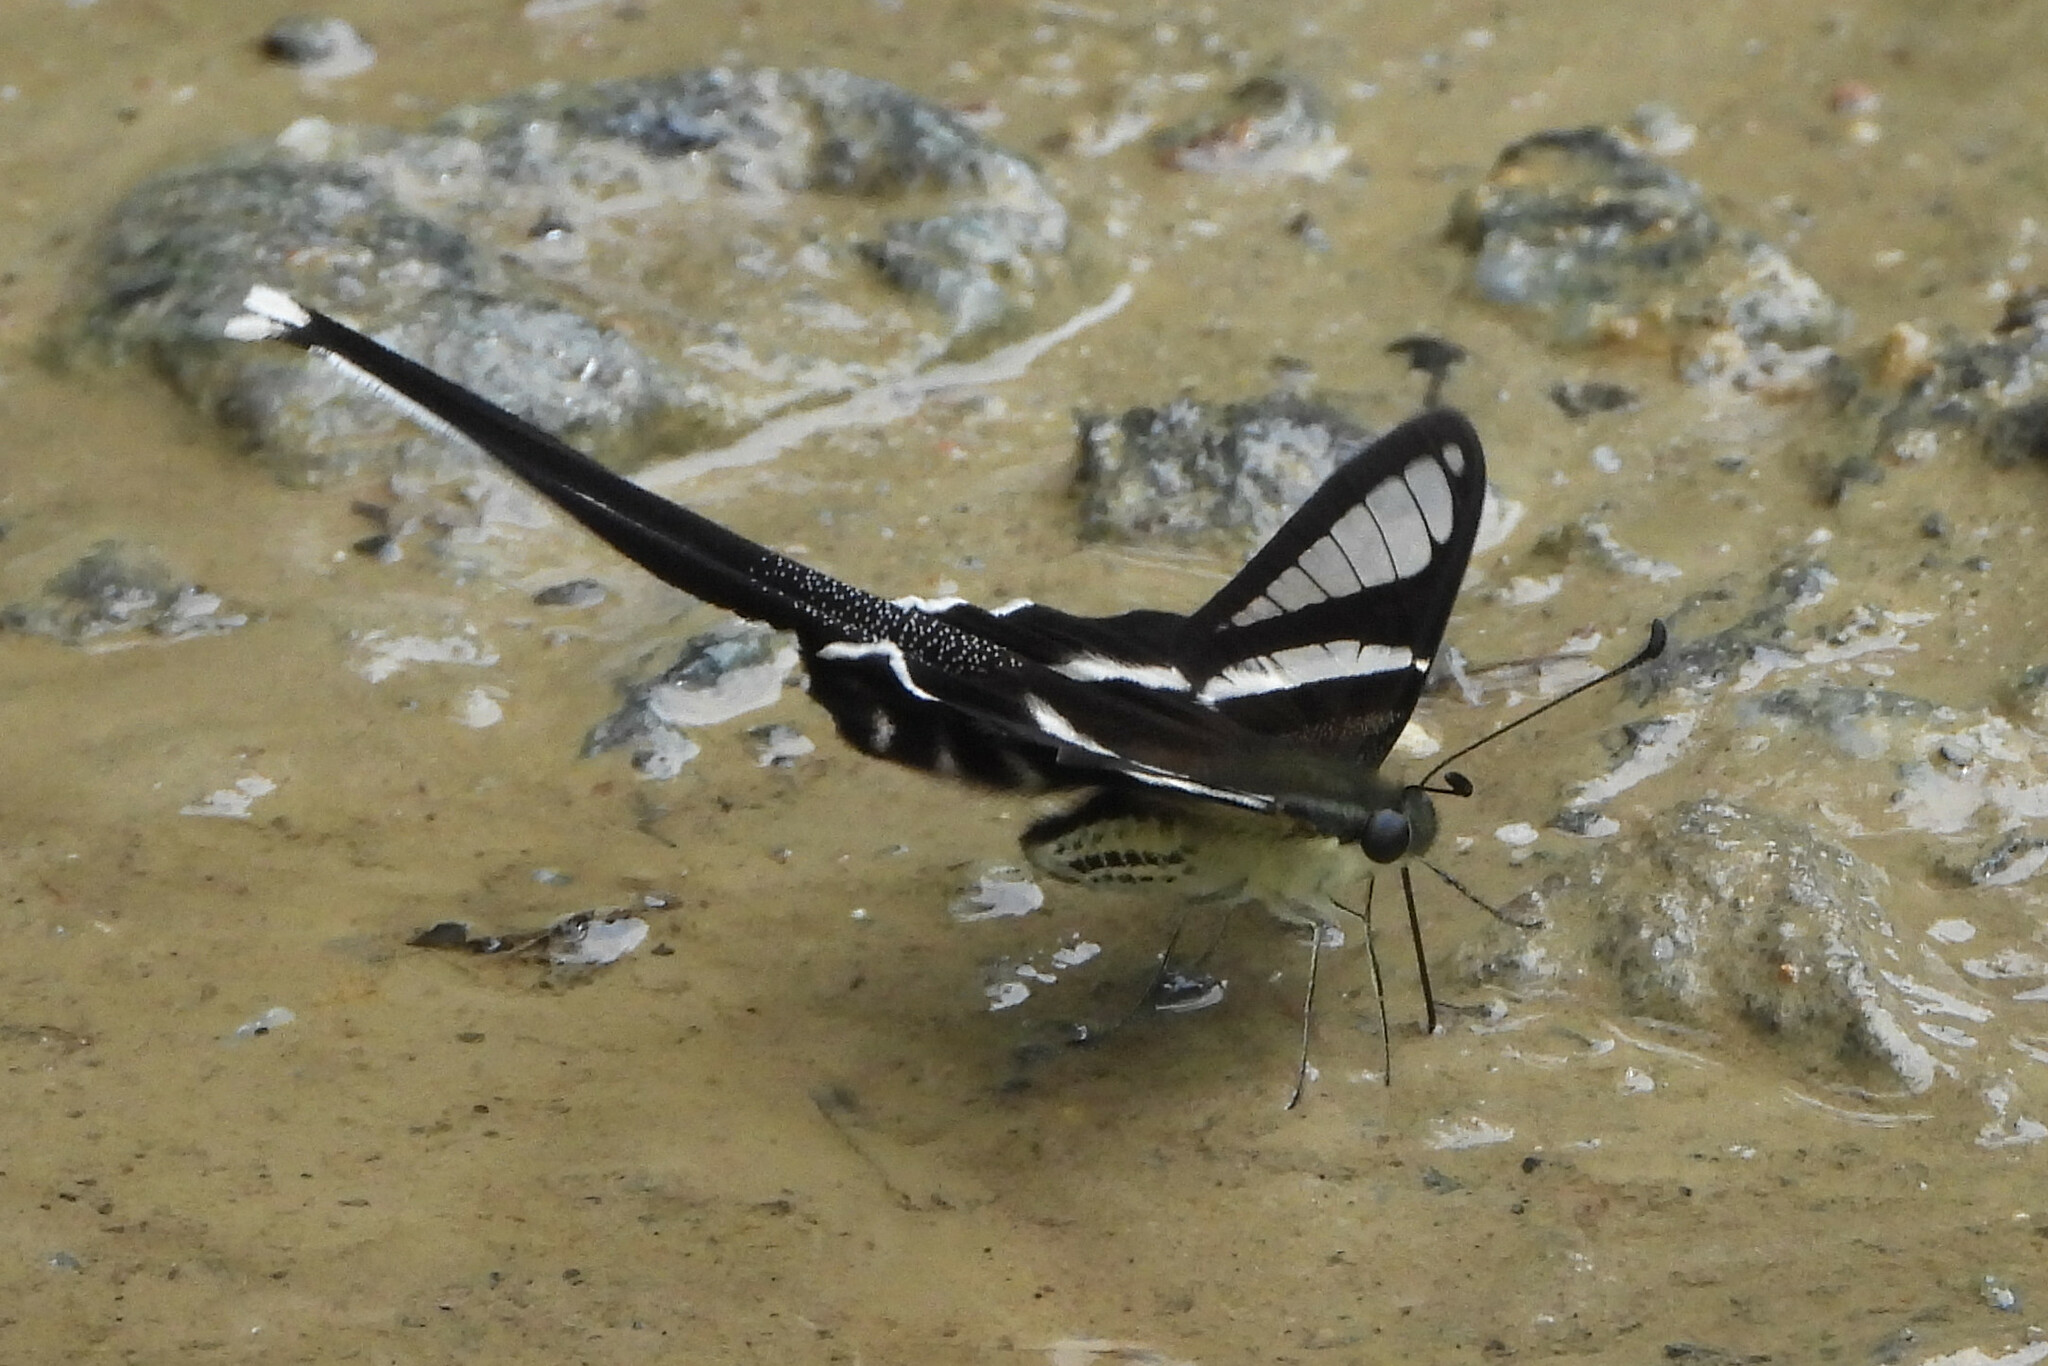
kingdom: Animalia
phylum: Arthropoda
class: Insecta
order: Lepidoptera
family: Papilionidae
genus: Lamproptera
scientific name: Lamproptera curius
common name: White dragontail
